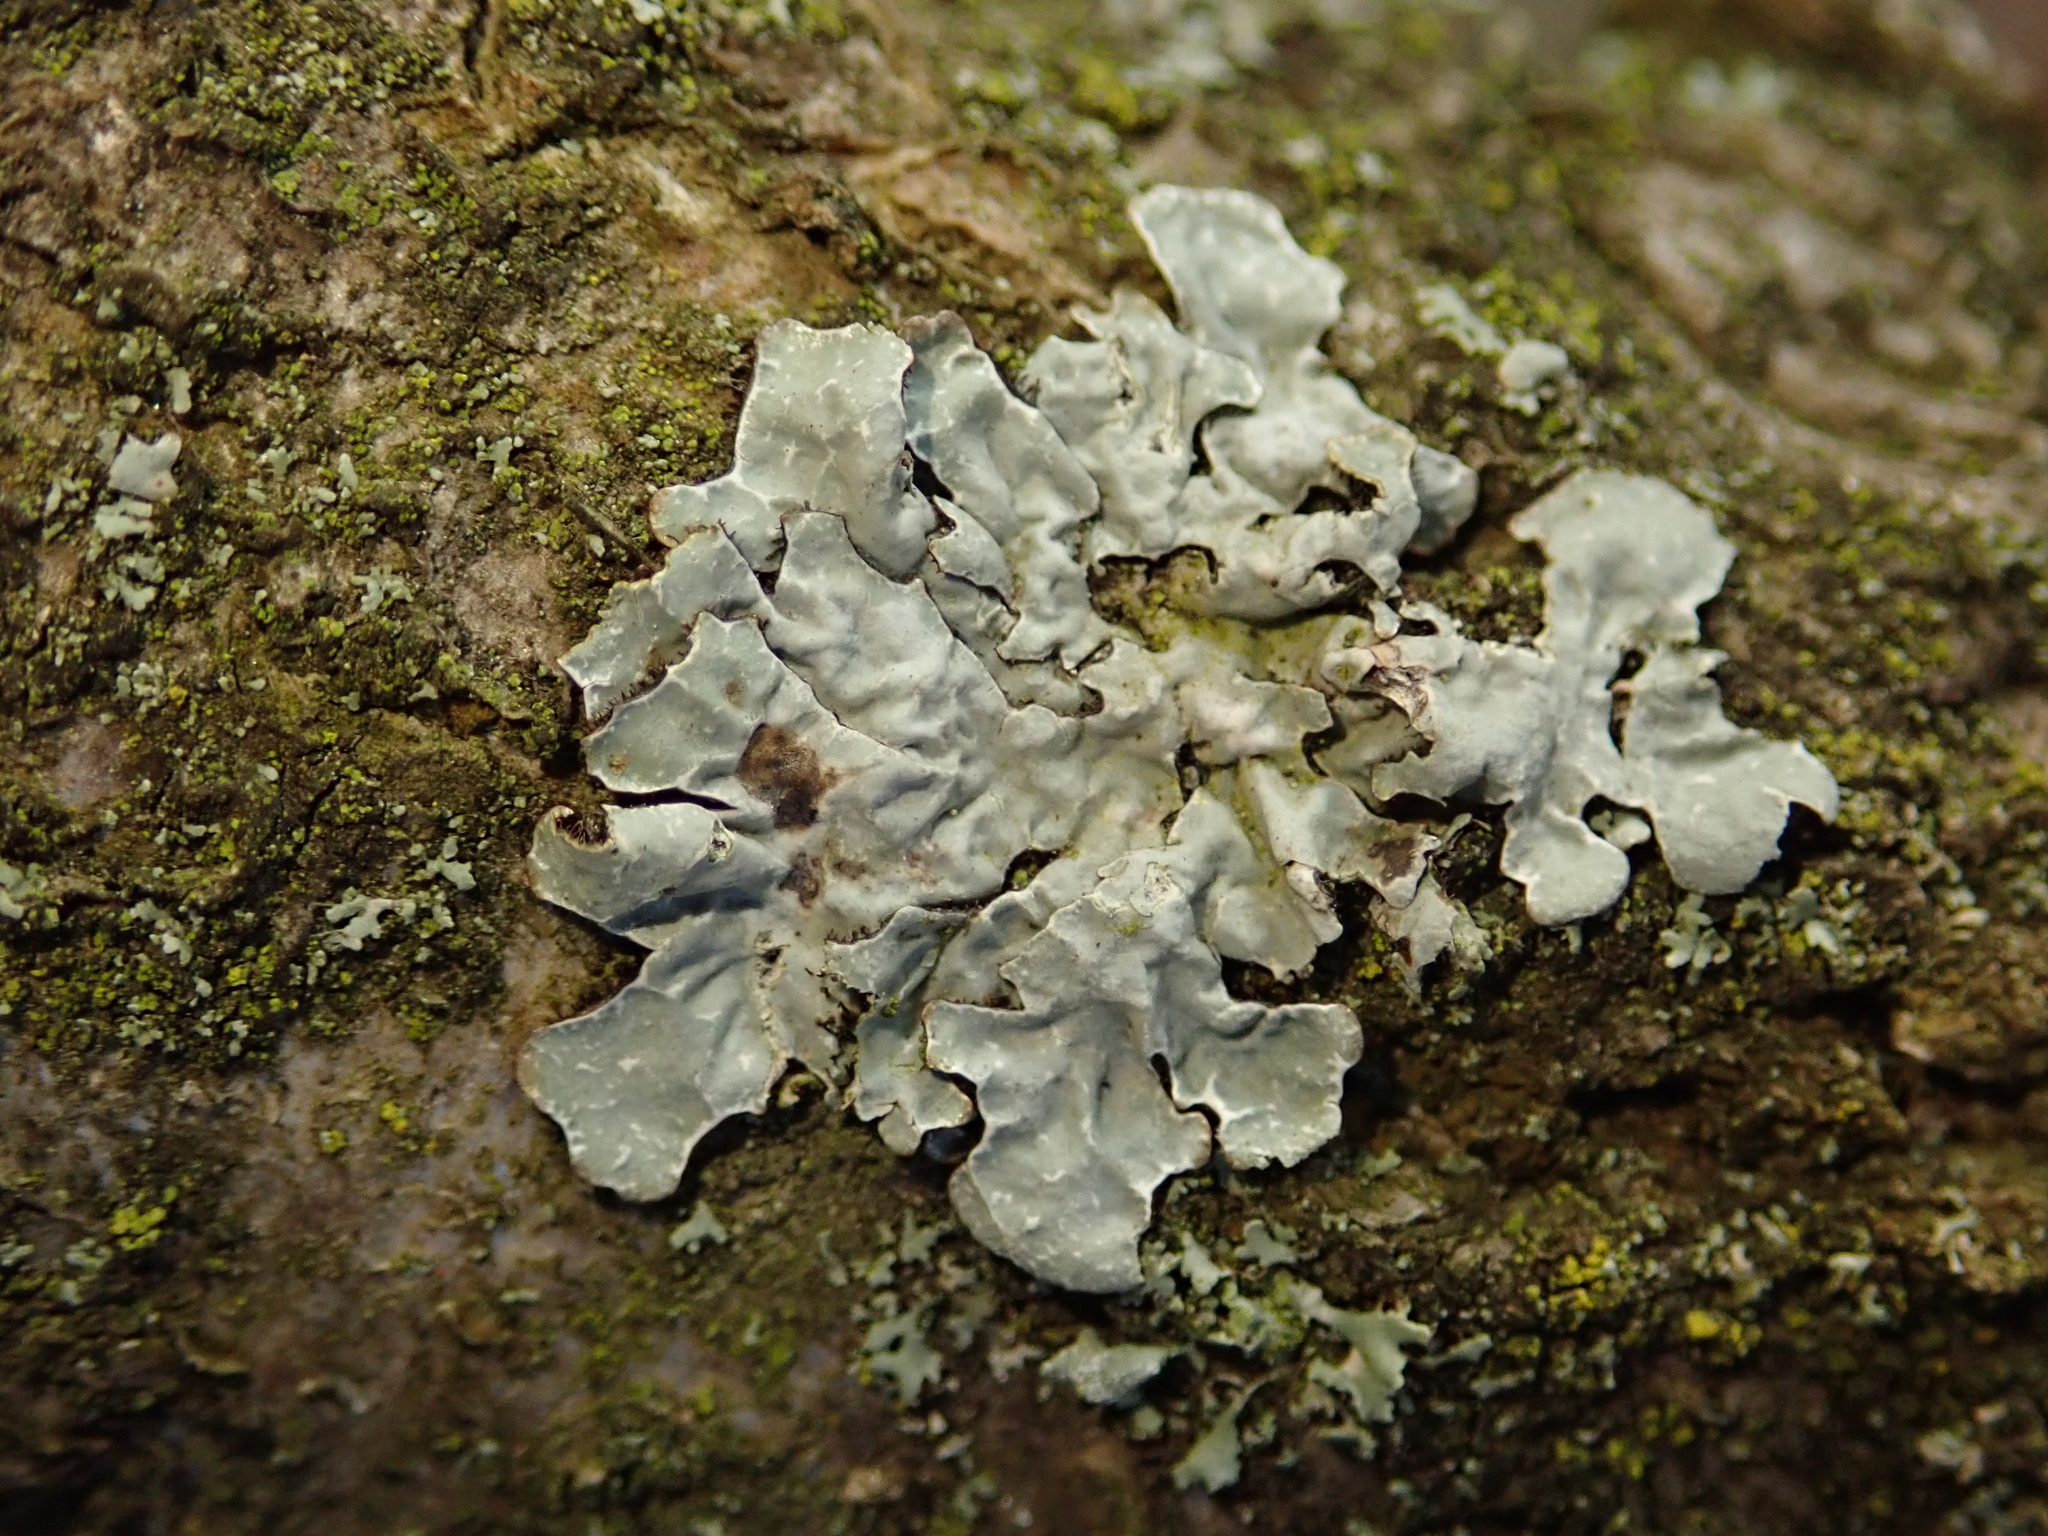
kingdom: Fungi
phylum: Ascomycota
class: Lecanoromycetes
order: Lecanorales
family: Parmeliaceae
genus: Parmelia
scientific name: Parmelia sulcata
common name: Netted shield lichen
